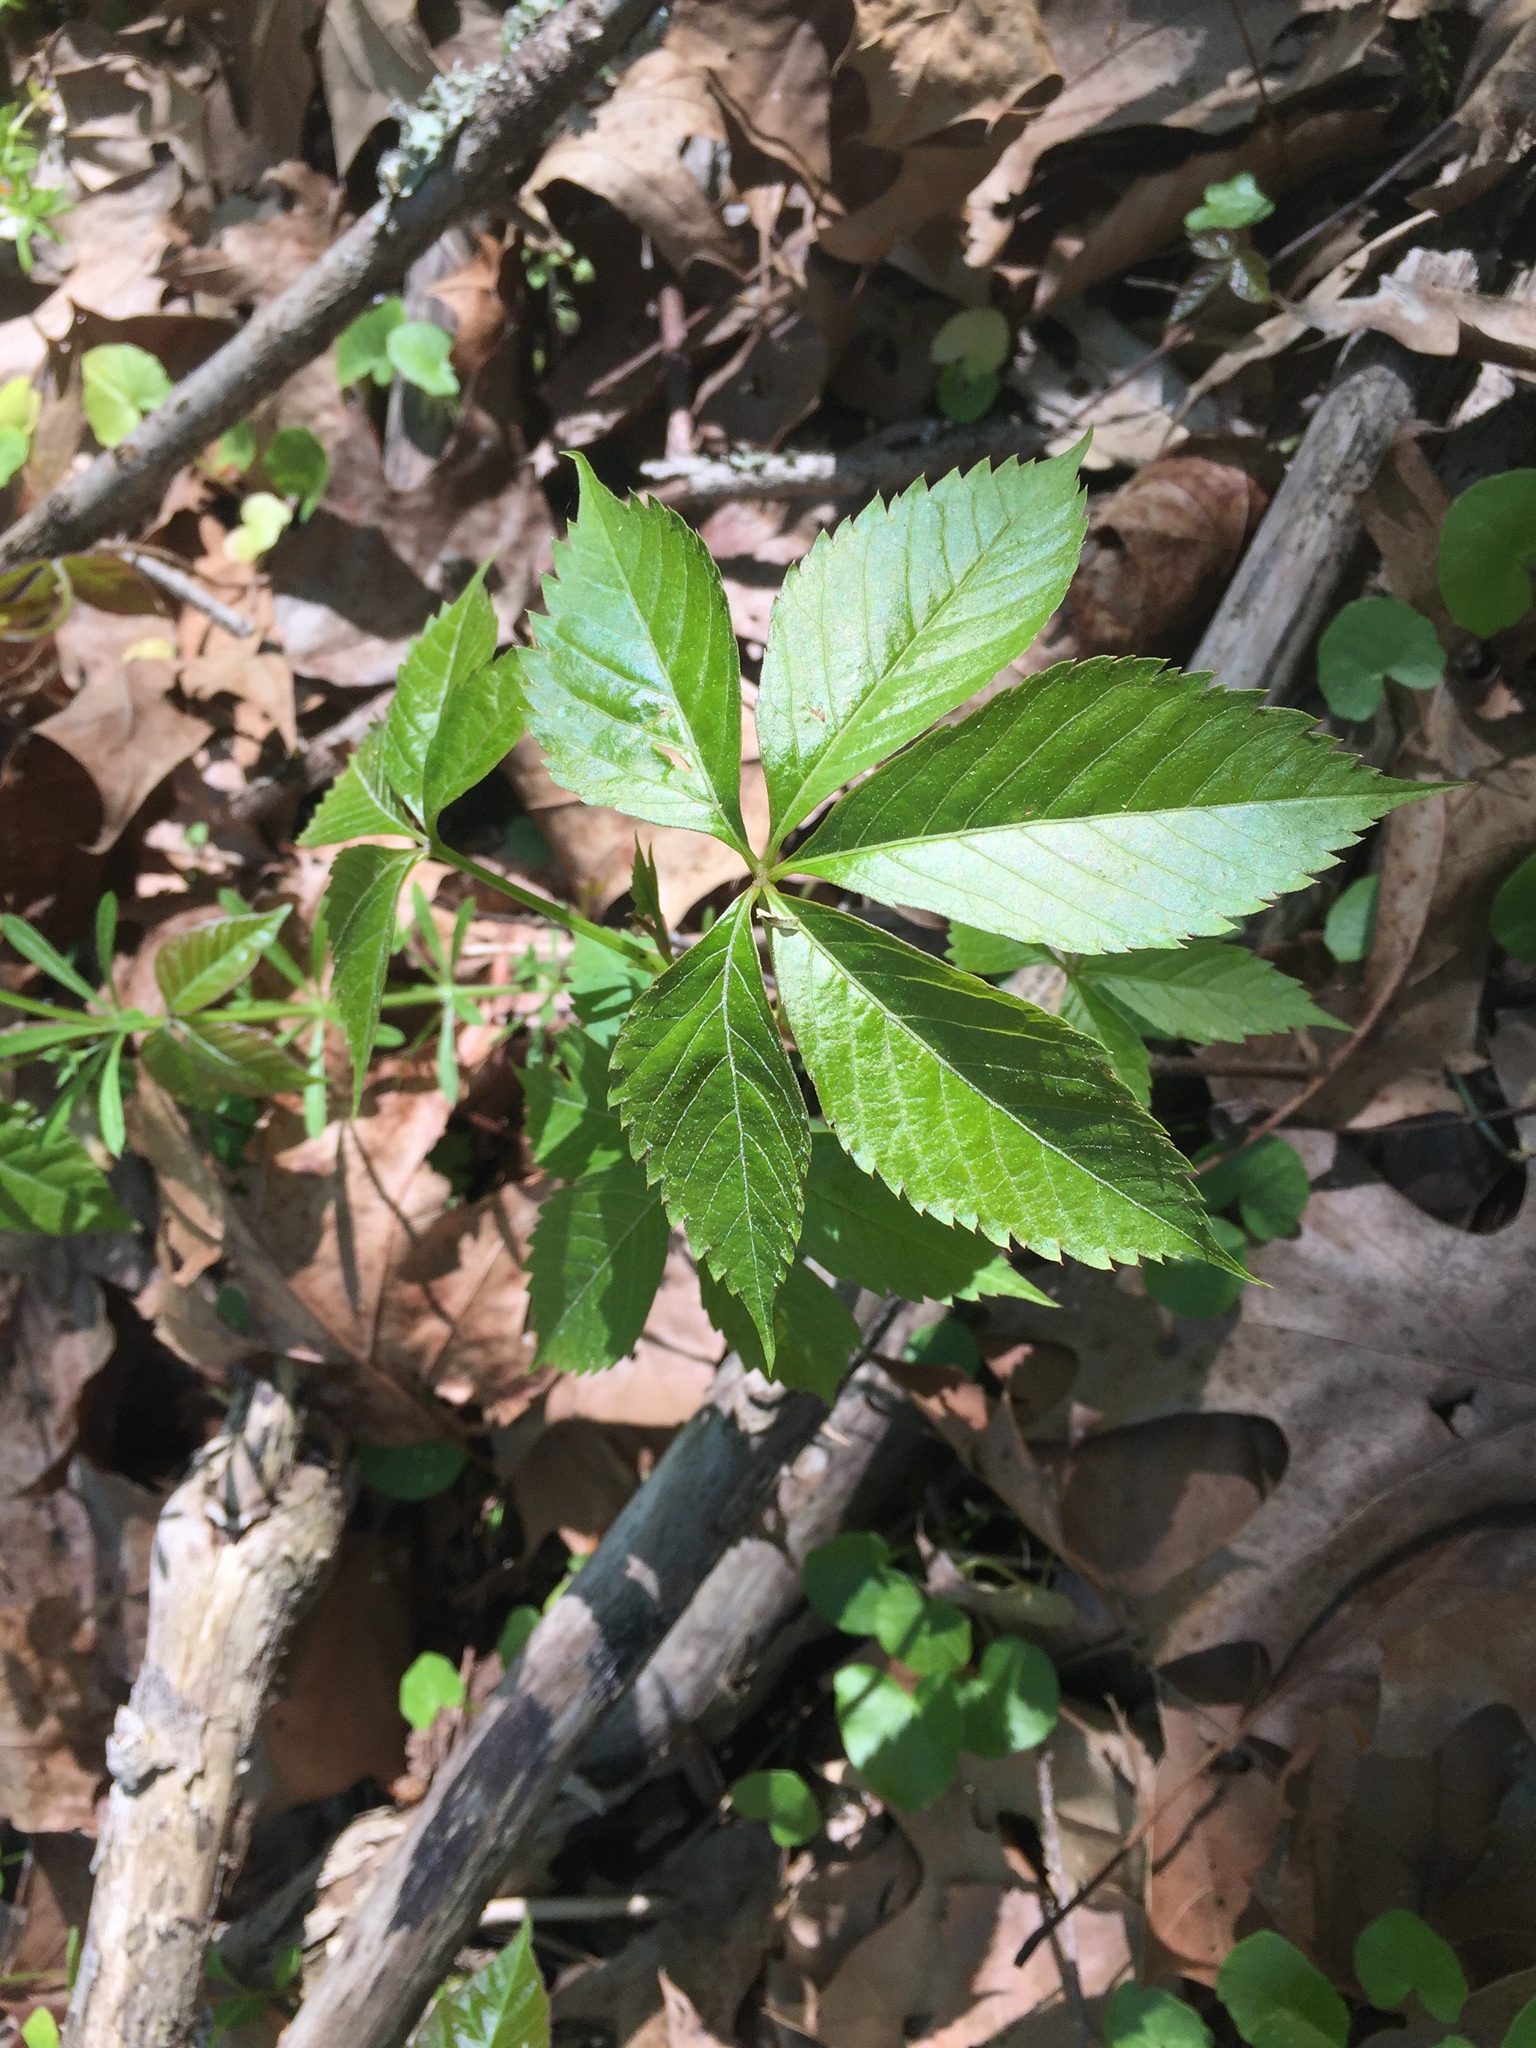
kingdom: Plantae
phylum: Tracheophyta
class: Magnoliopsida
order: Vitales
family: Vitaceae
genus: Parthenocissus
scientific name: Parthenocissus quinquefolia
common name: Virginia-creeper
